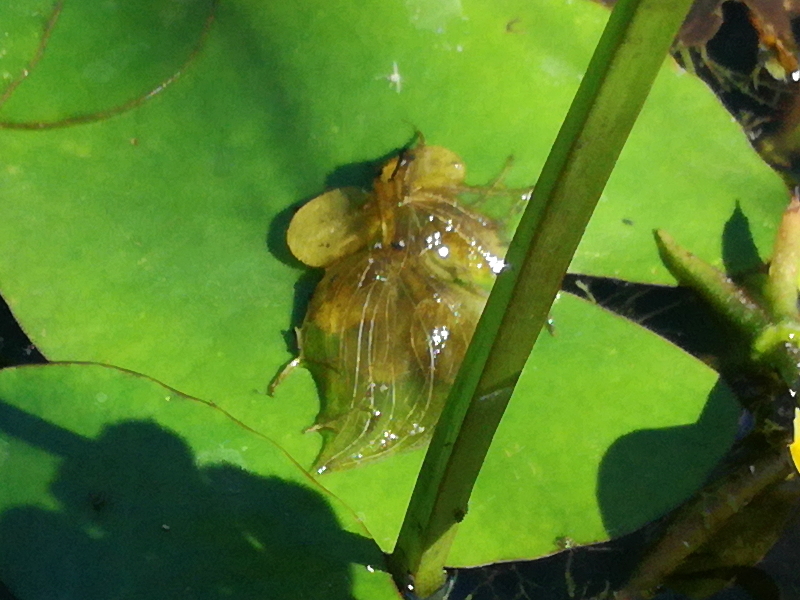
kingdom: Plantae
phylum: Tracheophyta
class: Magnoliopsida
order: Asterales
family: Menyanthaceae
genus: Nymphoides
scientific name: Nymphoides peltata
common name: Fringed water-lily
